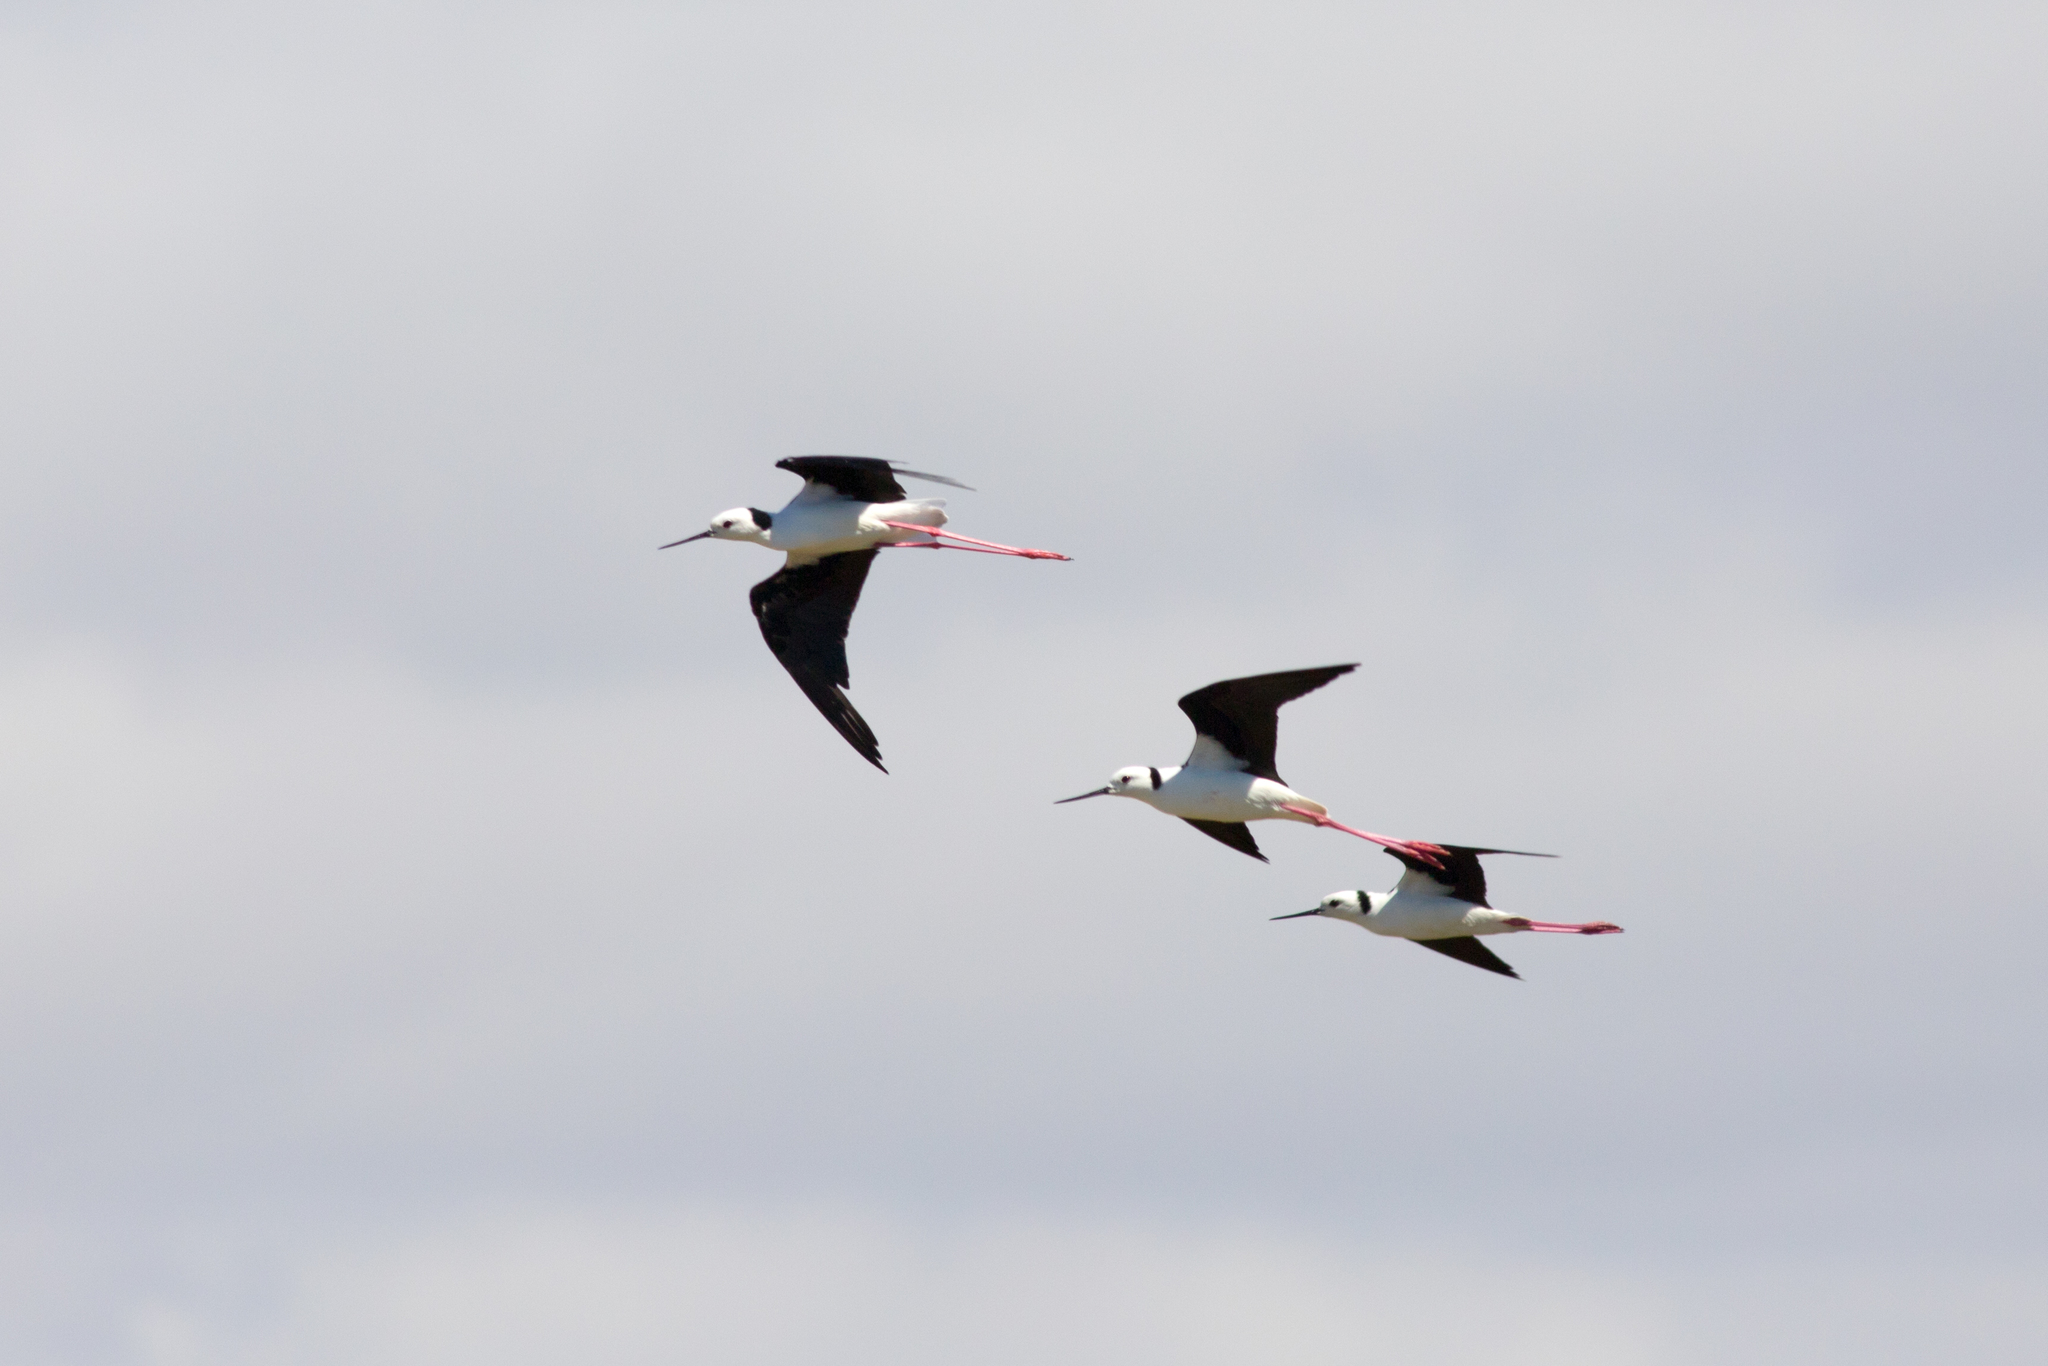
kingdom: Animalia
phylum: Chordata
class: Aves
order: Charadriiformes
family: Recurvirostridae
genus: Himantopus
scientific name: Himantopus leucocephalus
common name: White-headed stilt
